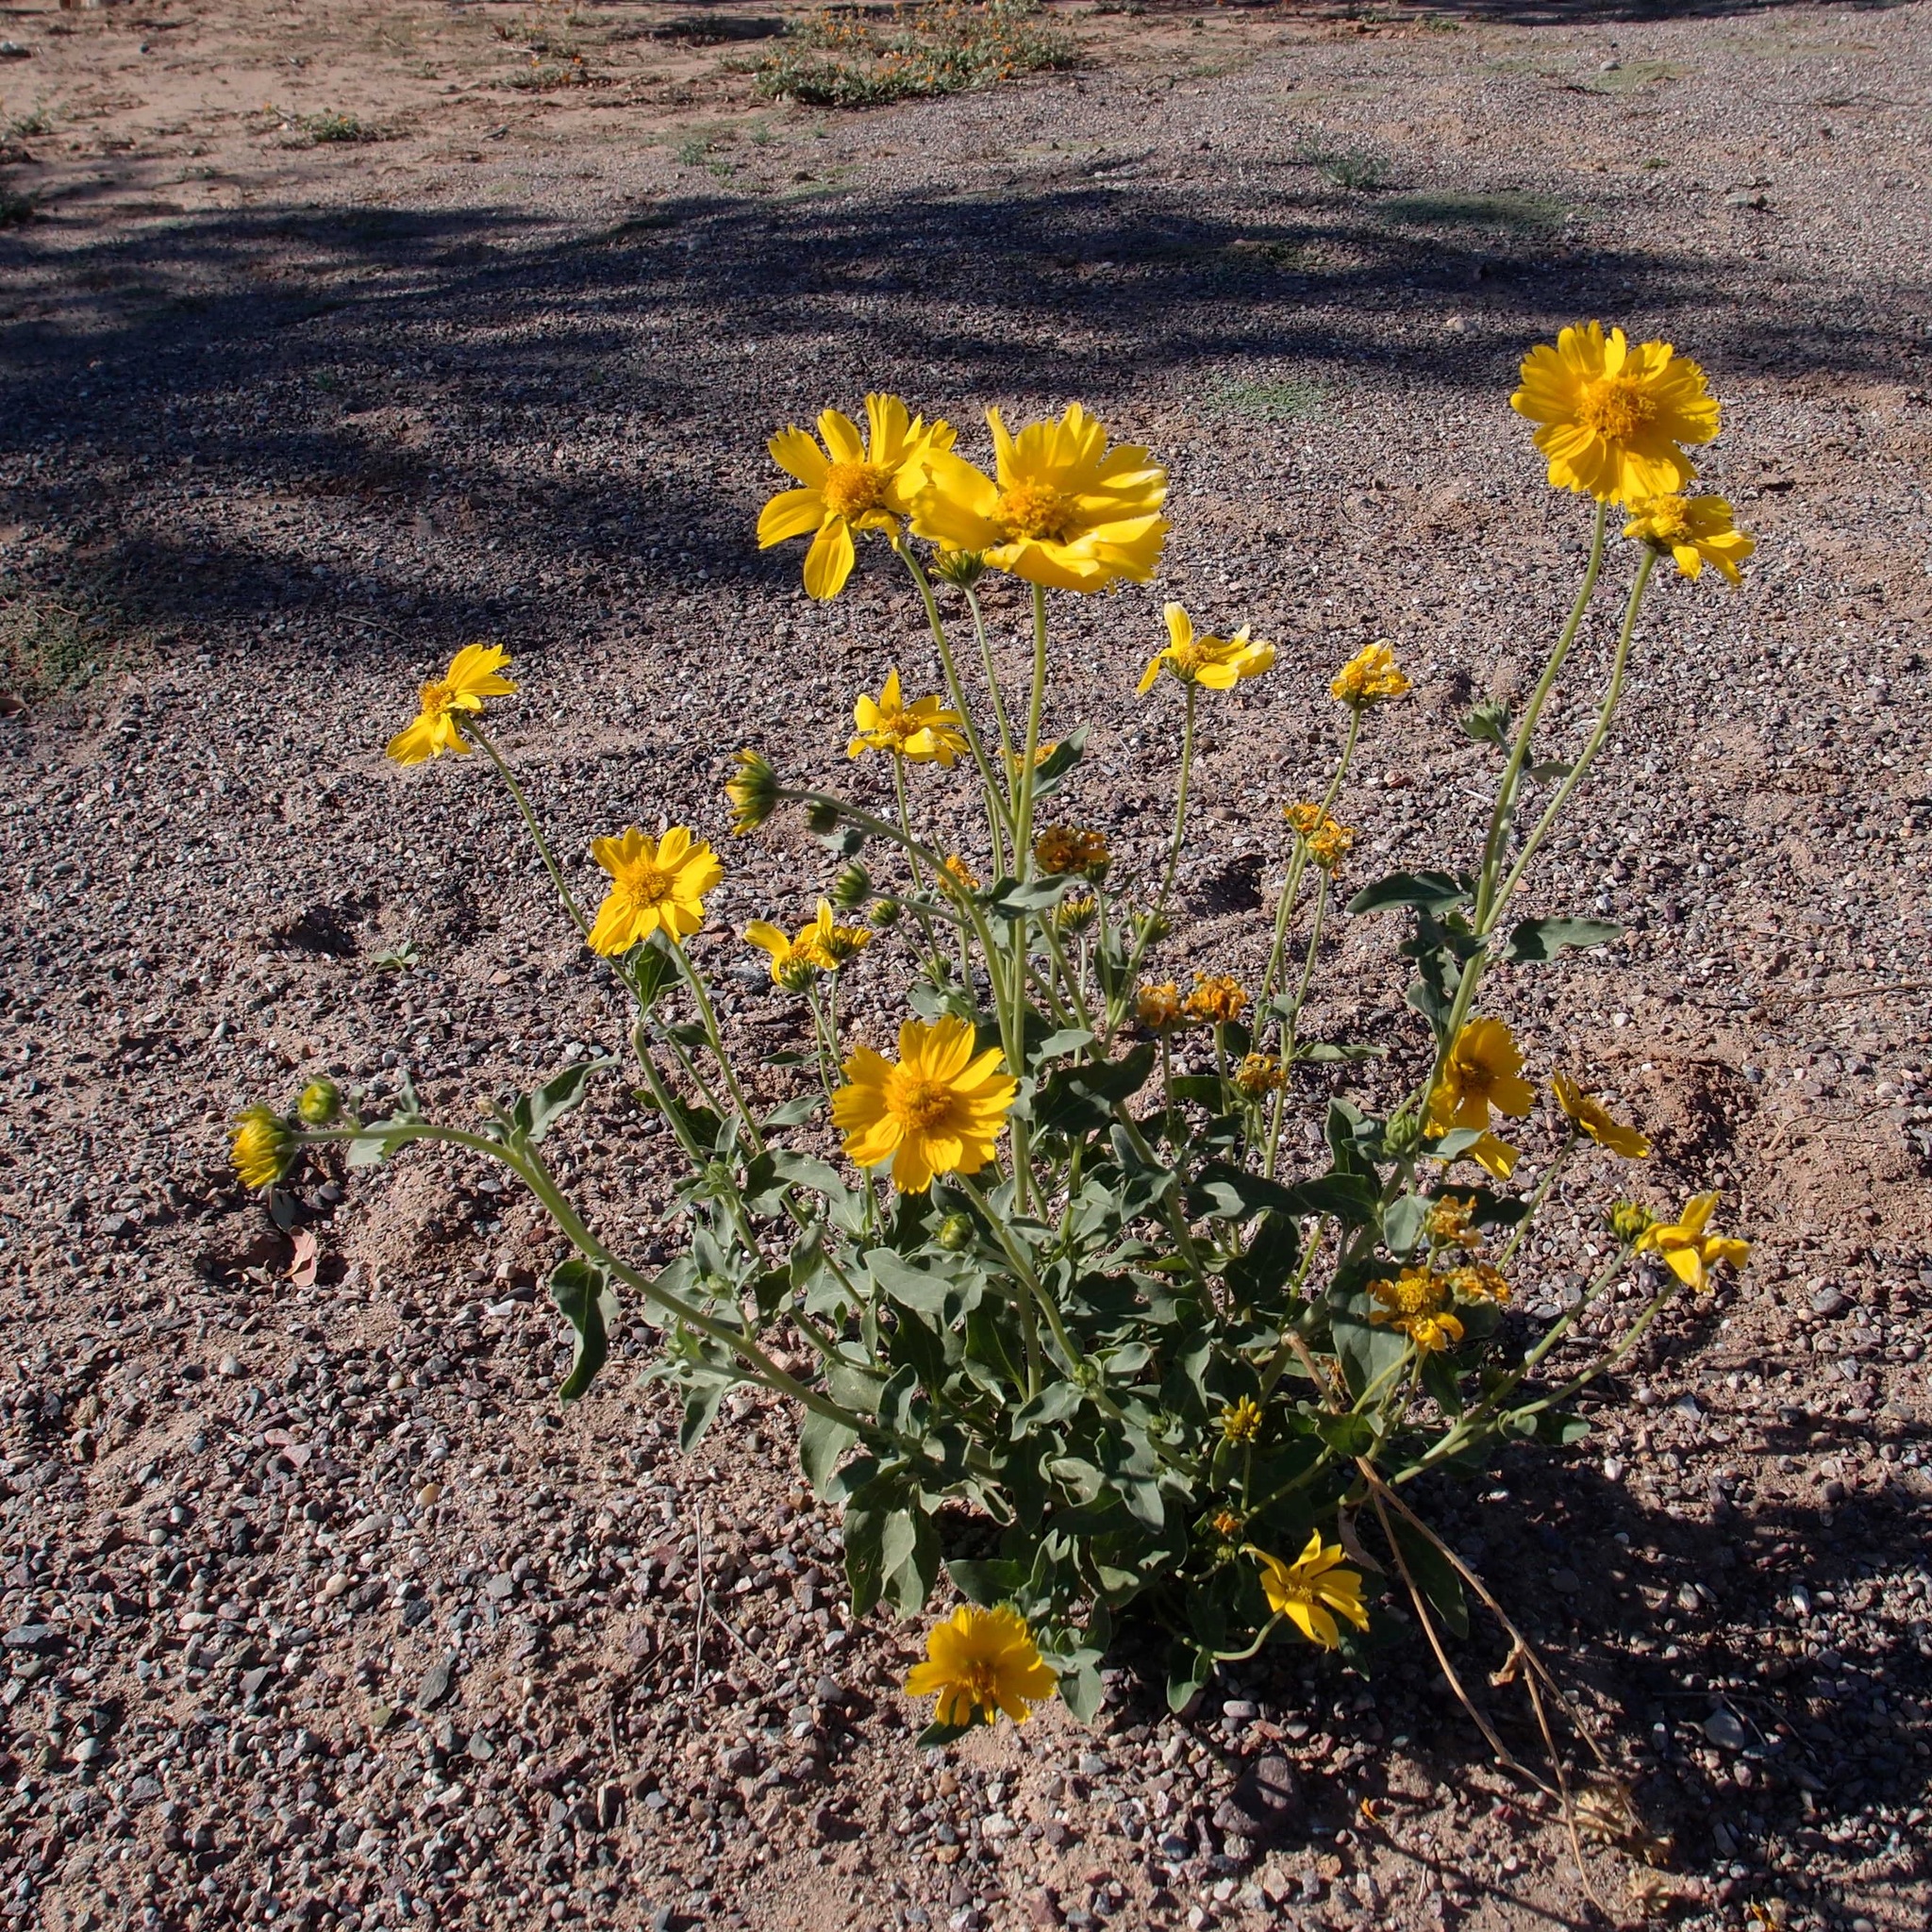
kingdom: Plantae
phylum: Tracheophyta
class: Magnoliopsida
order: Asterales
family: Asteraceae
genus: Verbesina
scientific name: Verbesina encelioides
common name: Golden crownbeard
